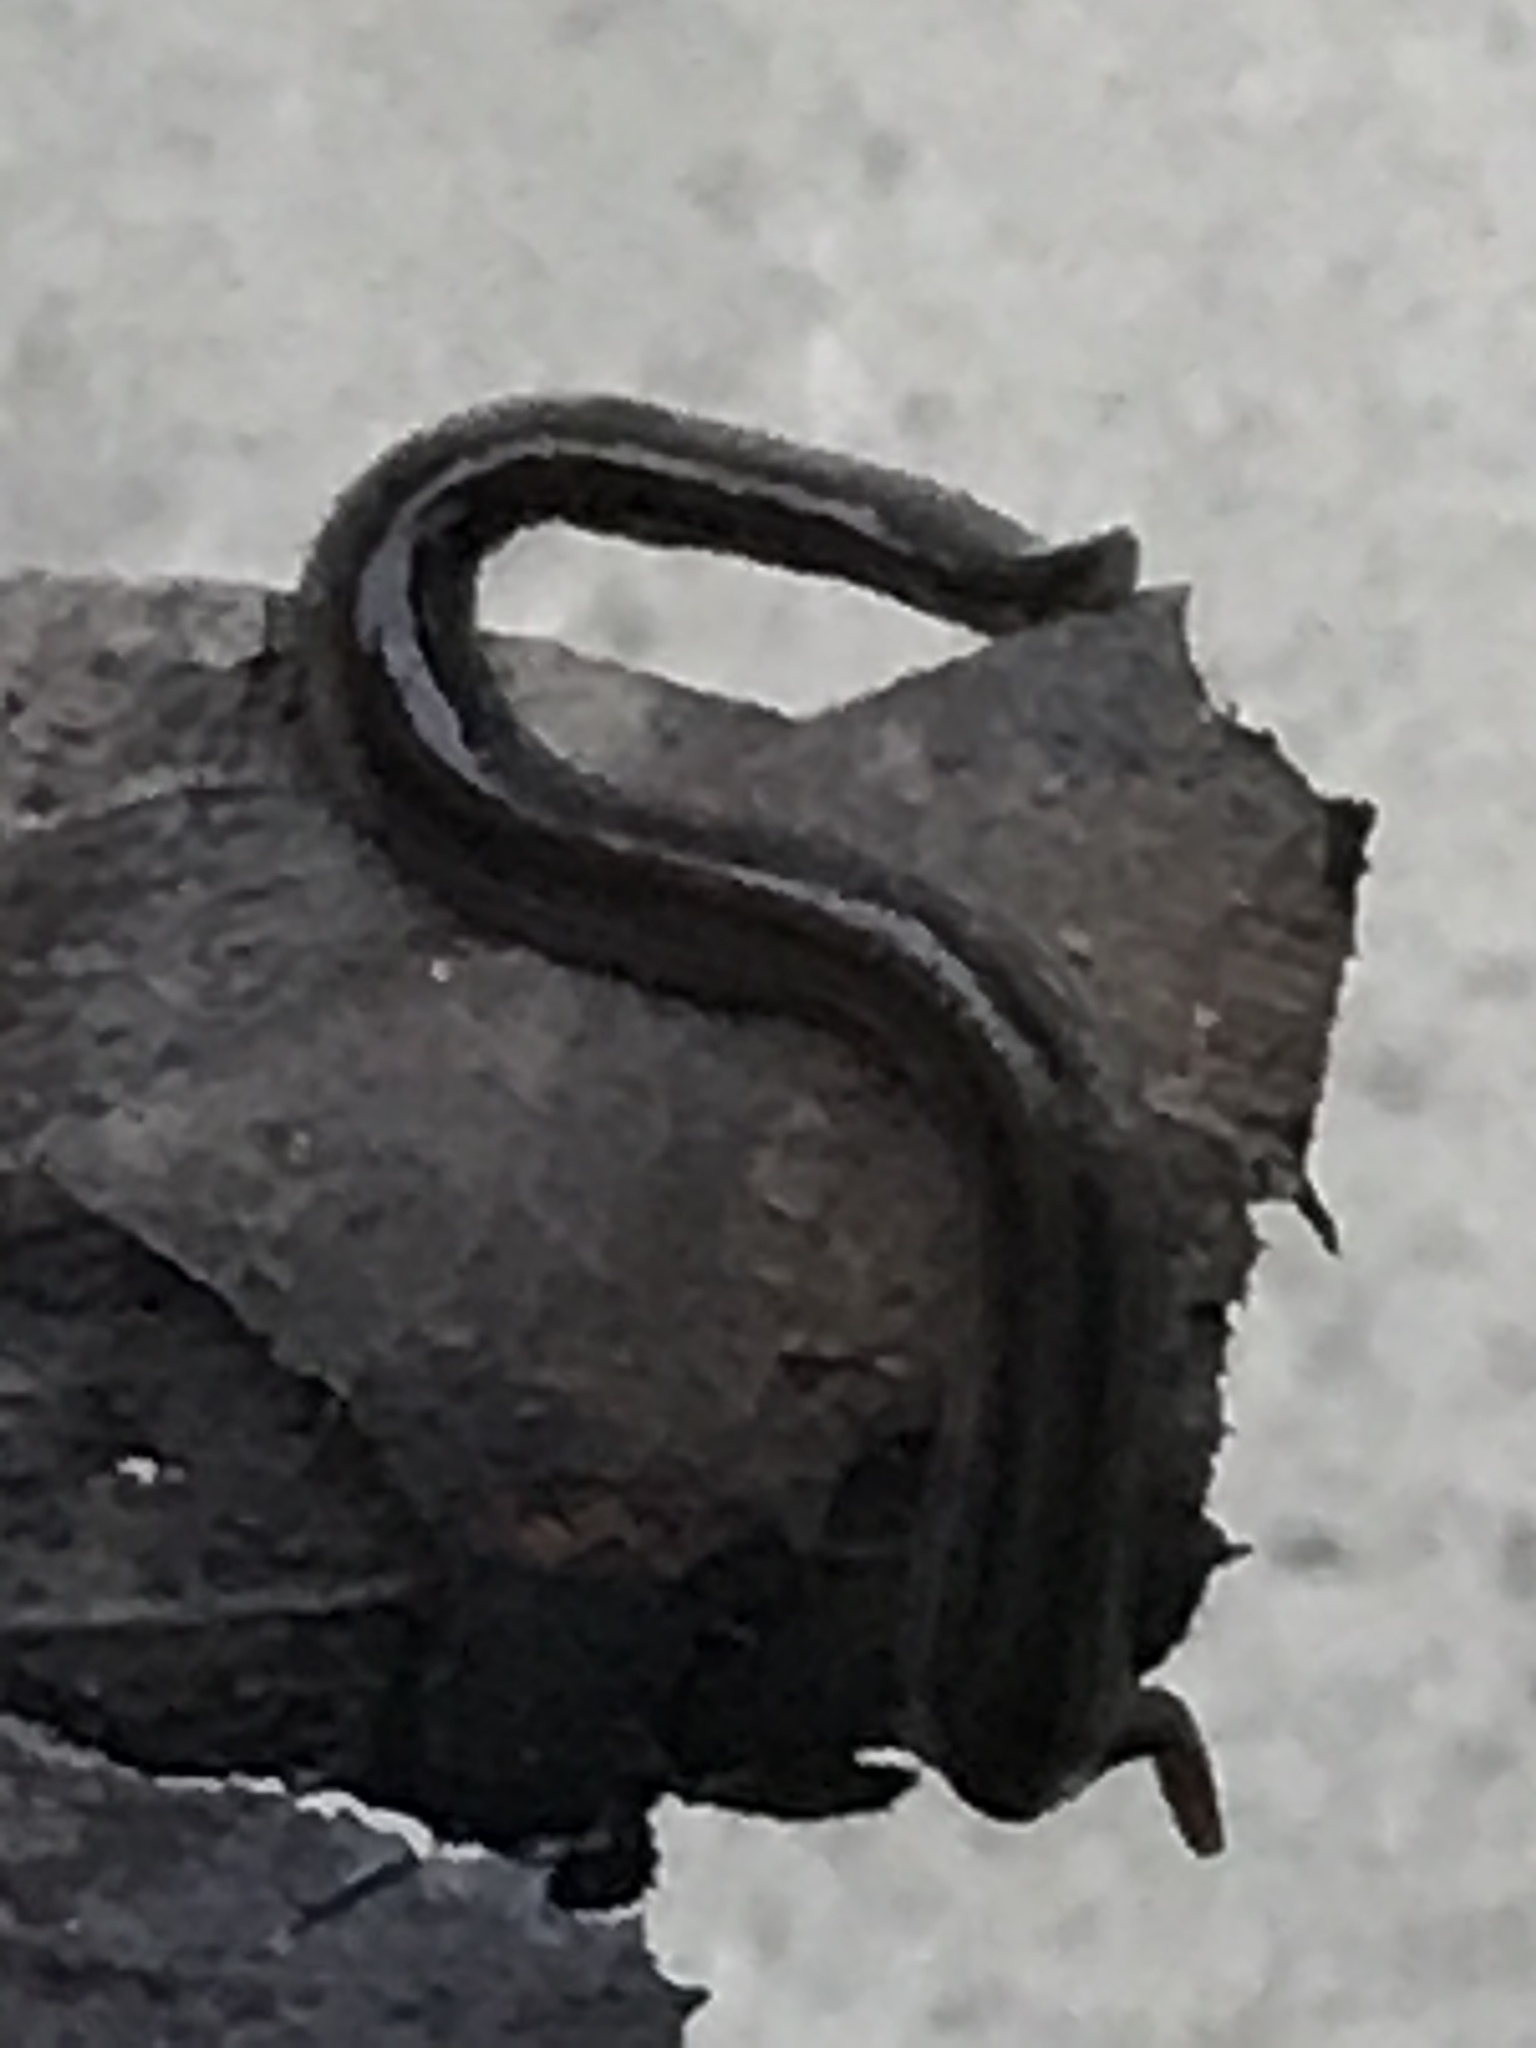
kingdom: Animalia
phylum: Platyhelminthes
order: Tricladida
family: Geoplanidae
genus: Endeavouria
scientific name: Endeavouria septemlineata
